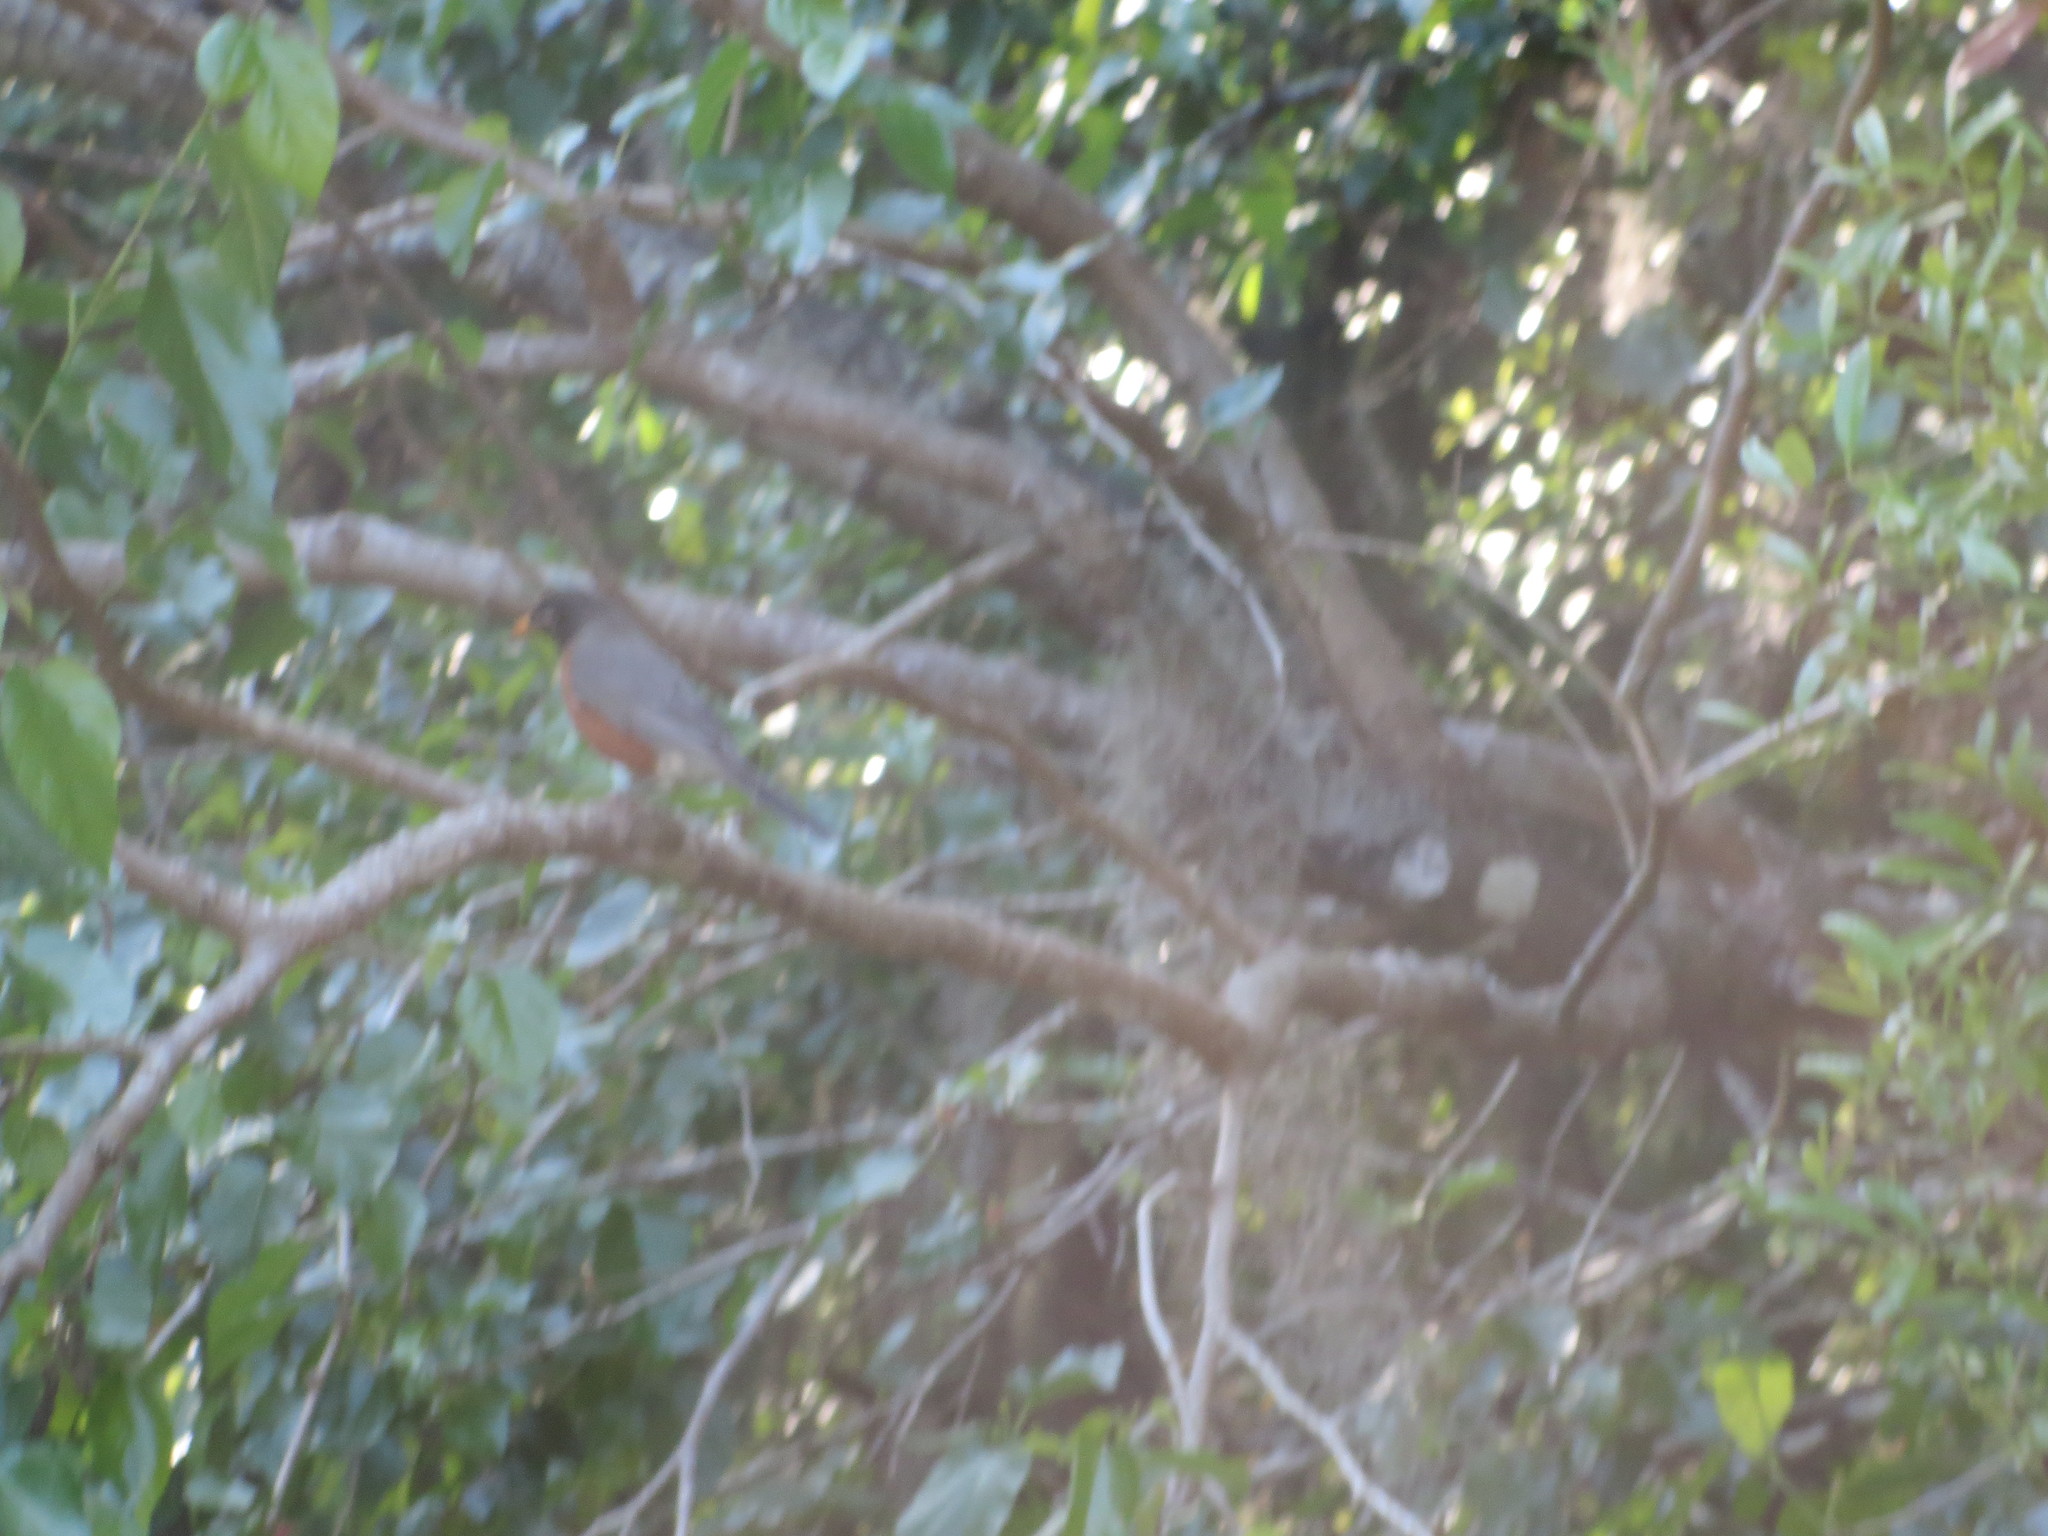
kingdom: Animalia
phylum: Chordata
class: Aves
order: Passeriformes
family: Turdidae
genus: Turdus
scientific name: Turdus migratorius
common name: American robin
